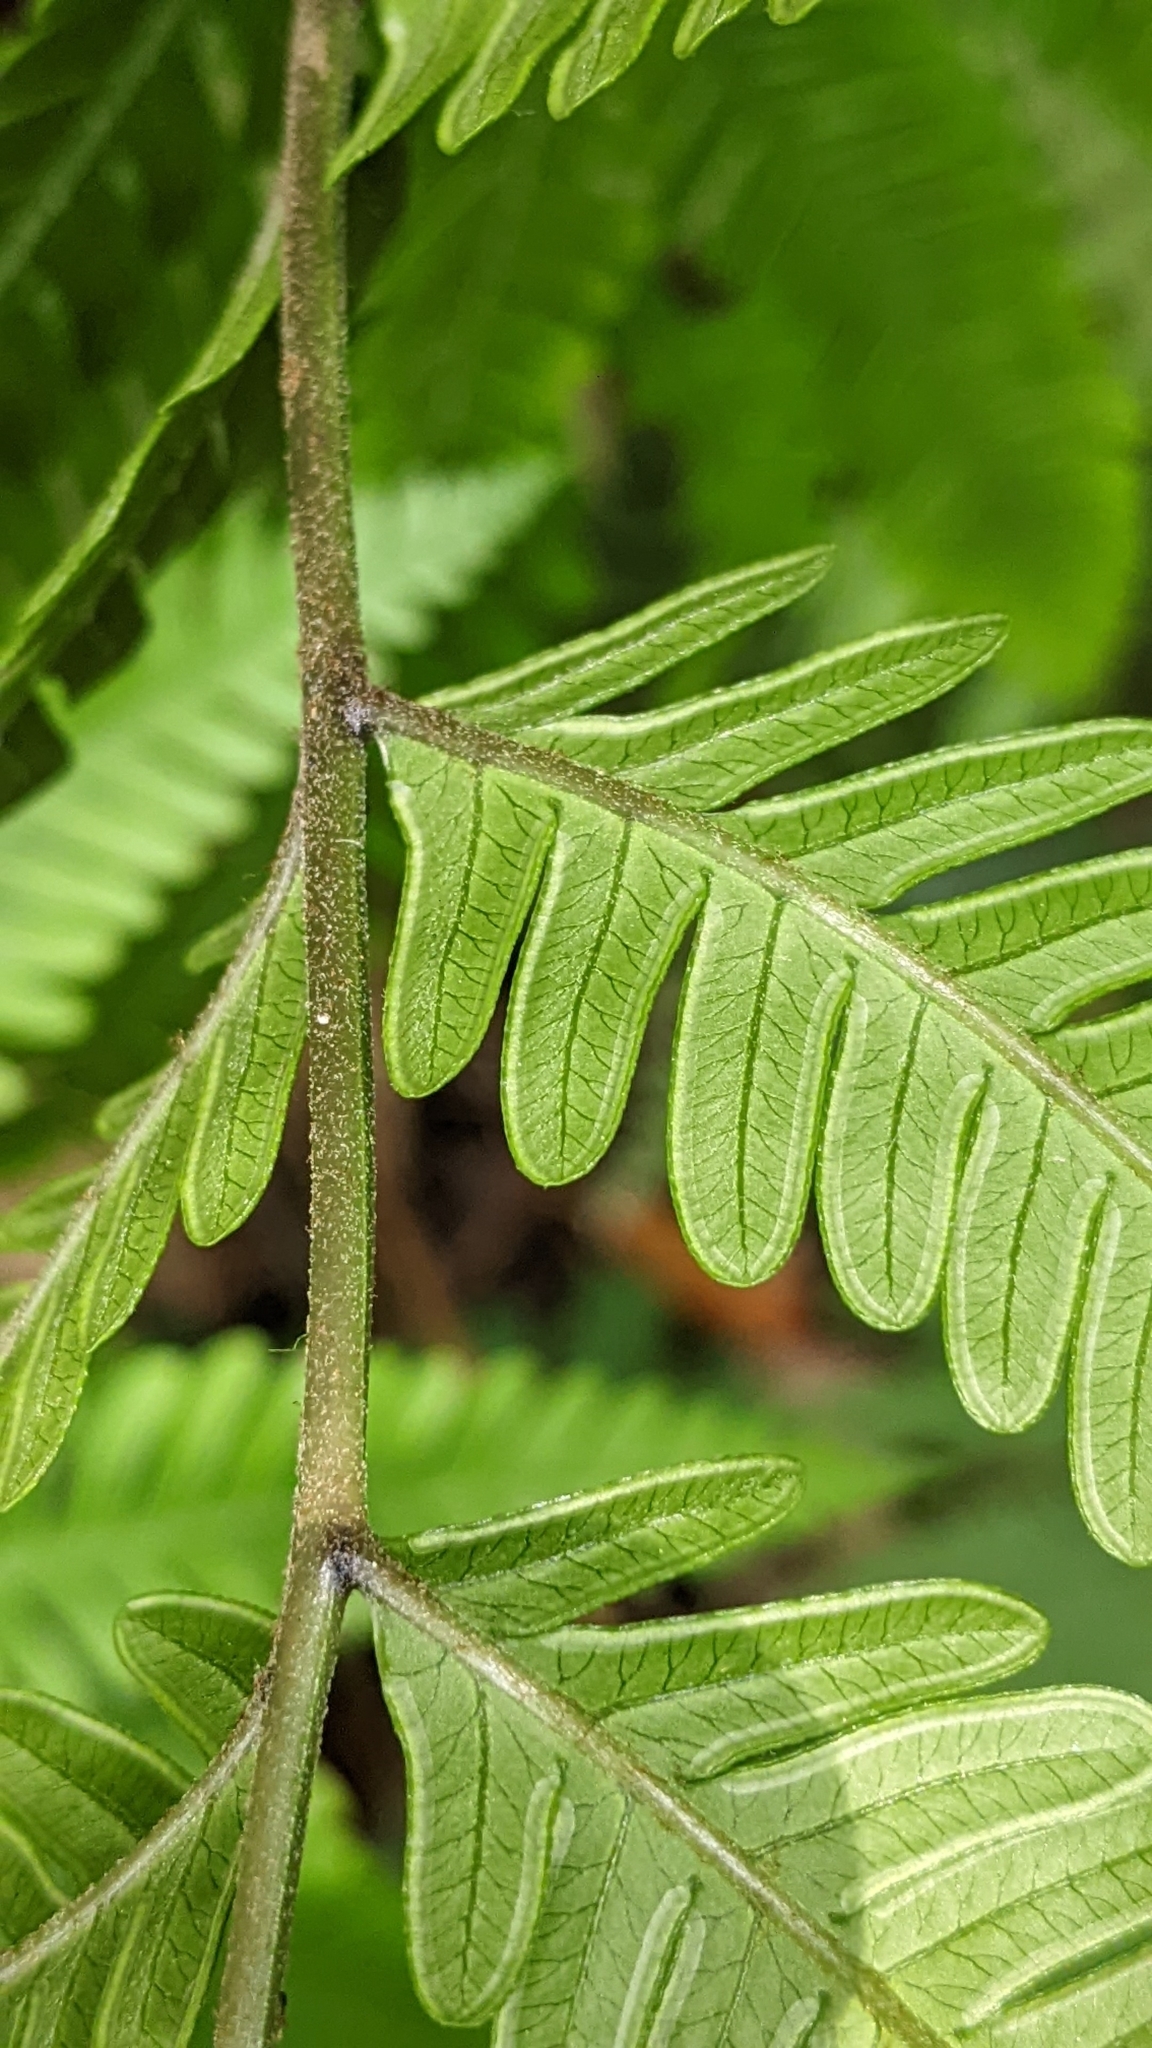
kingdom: Plantae
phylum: Tracheophyta
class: Polypodiopsida
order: Polypodiales
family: Pteridaceae
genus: Pteris
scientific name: Pteris fauriei
